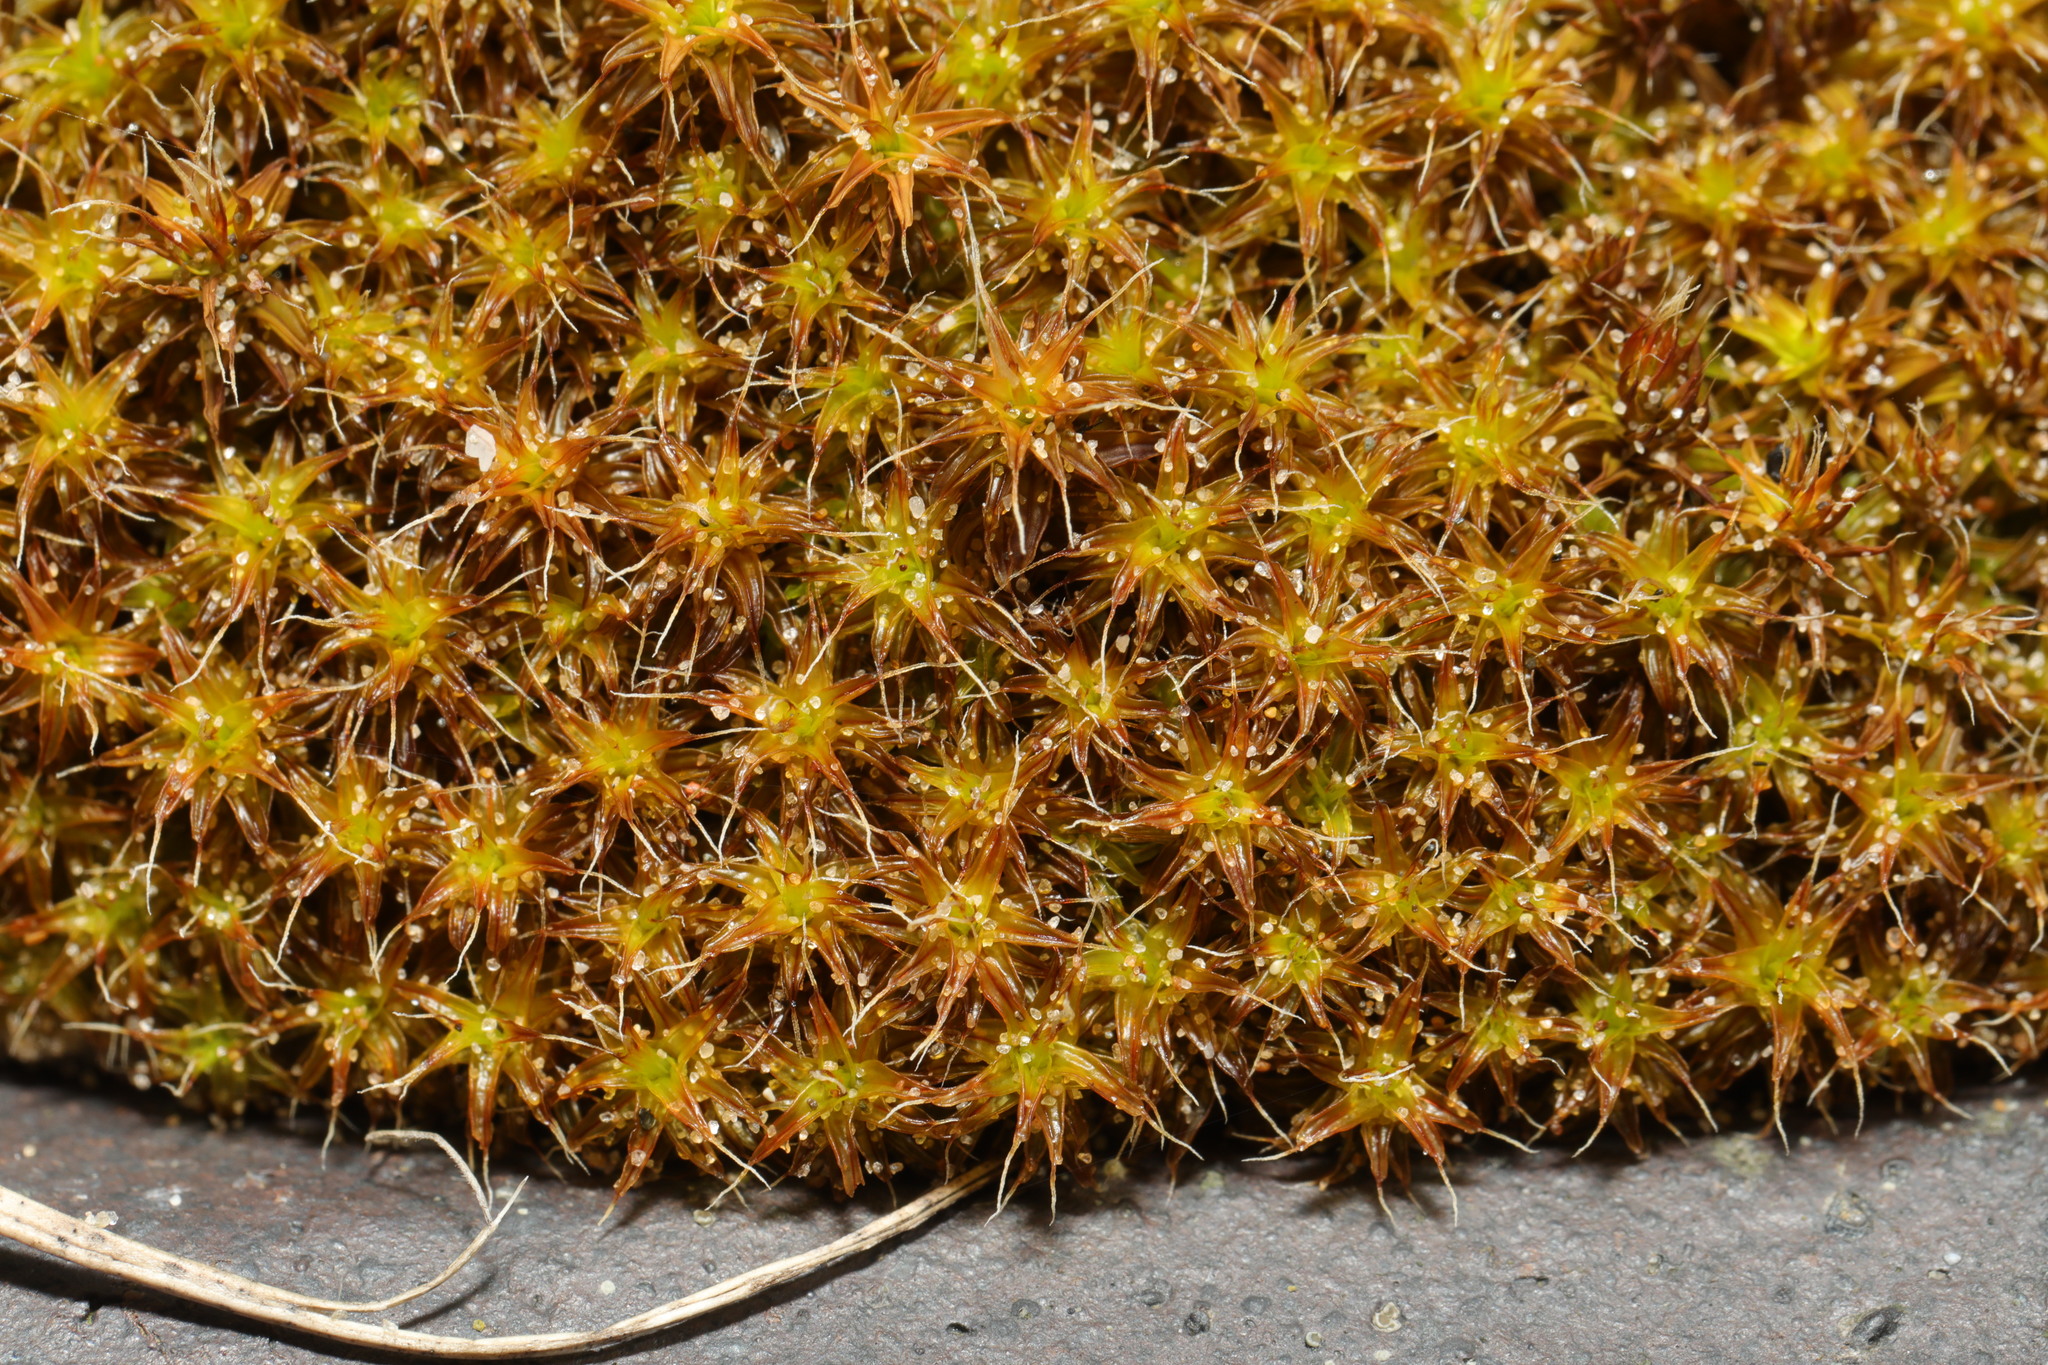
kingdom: Plantae
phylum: Bryophyta
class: Bryopsida
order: Pottiales
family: Pottiaceae
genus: Syntrichia
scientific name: Syntrichia ruralis
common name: Sidewalk screw moss
